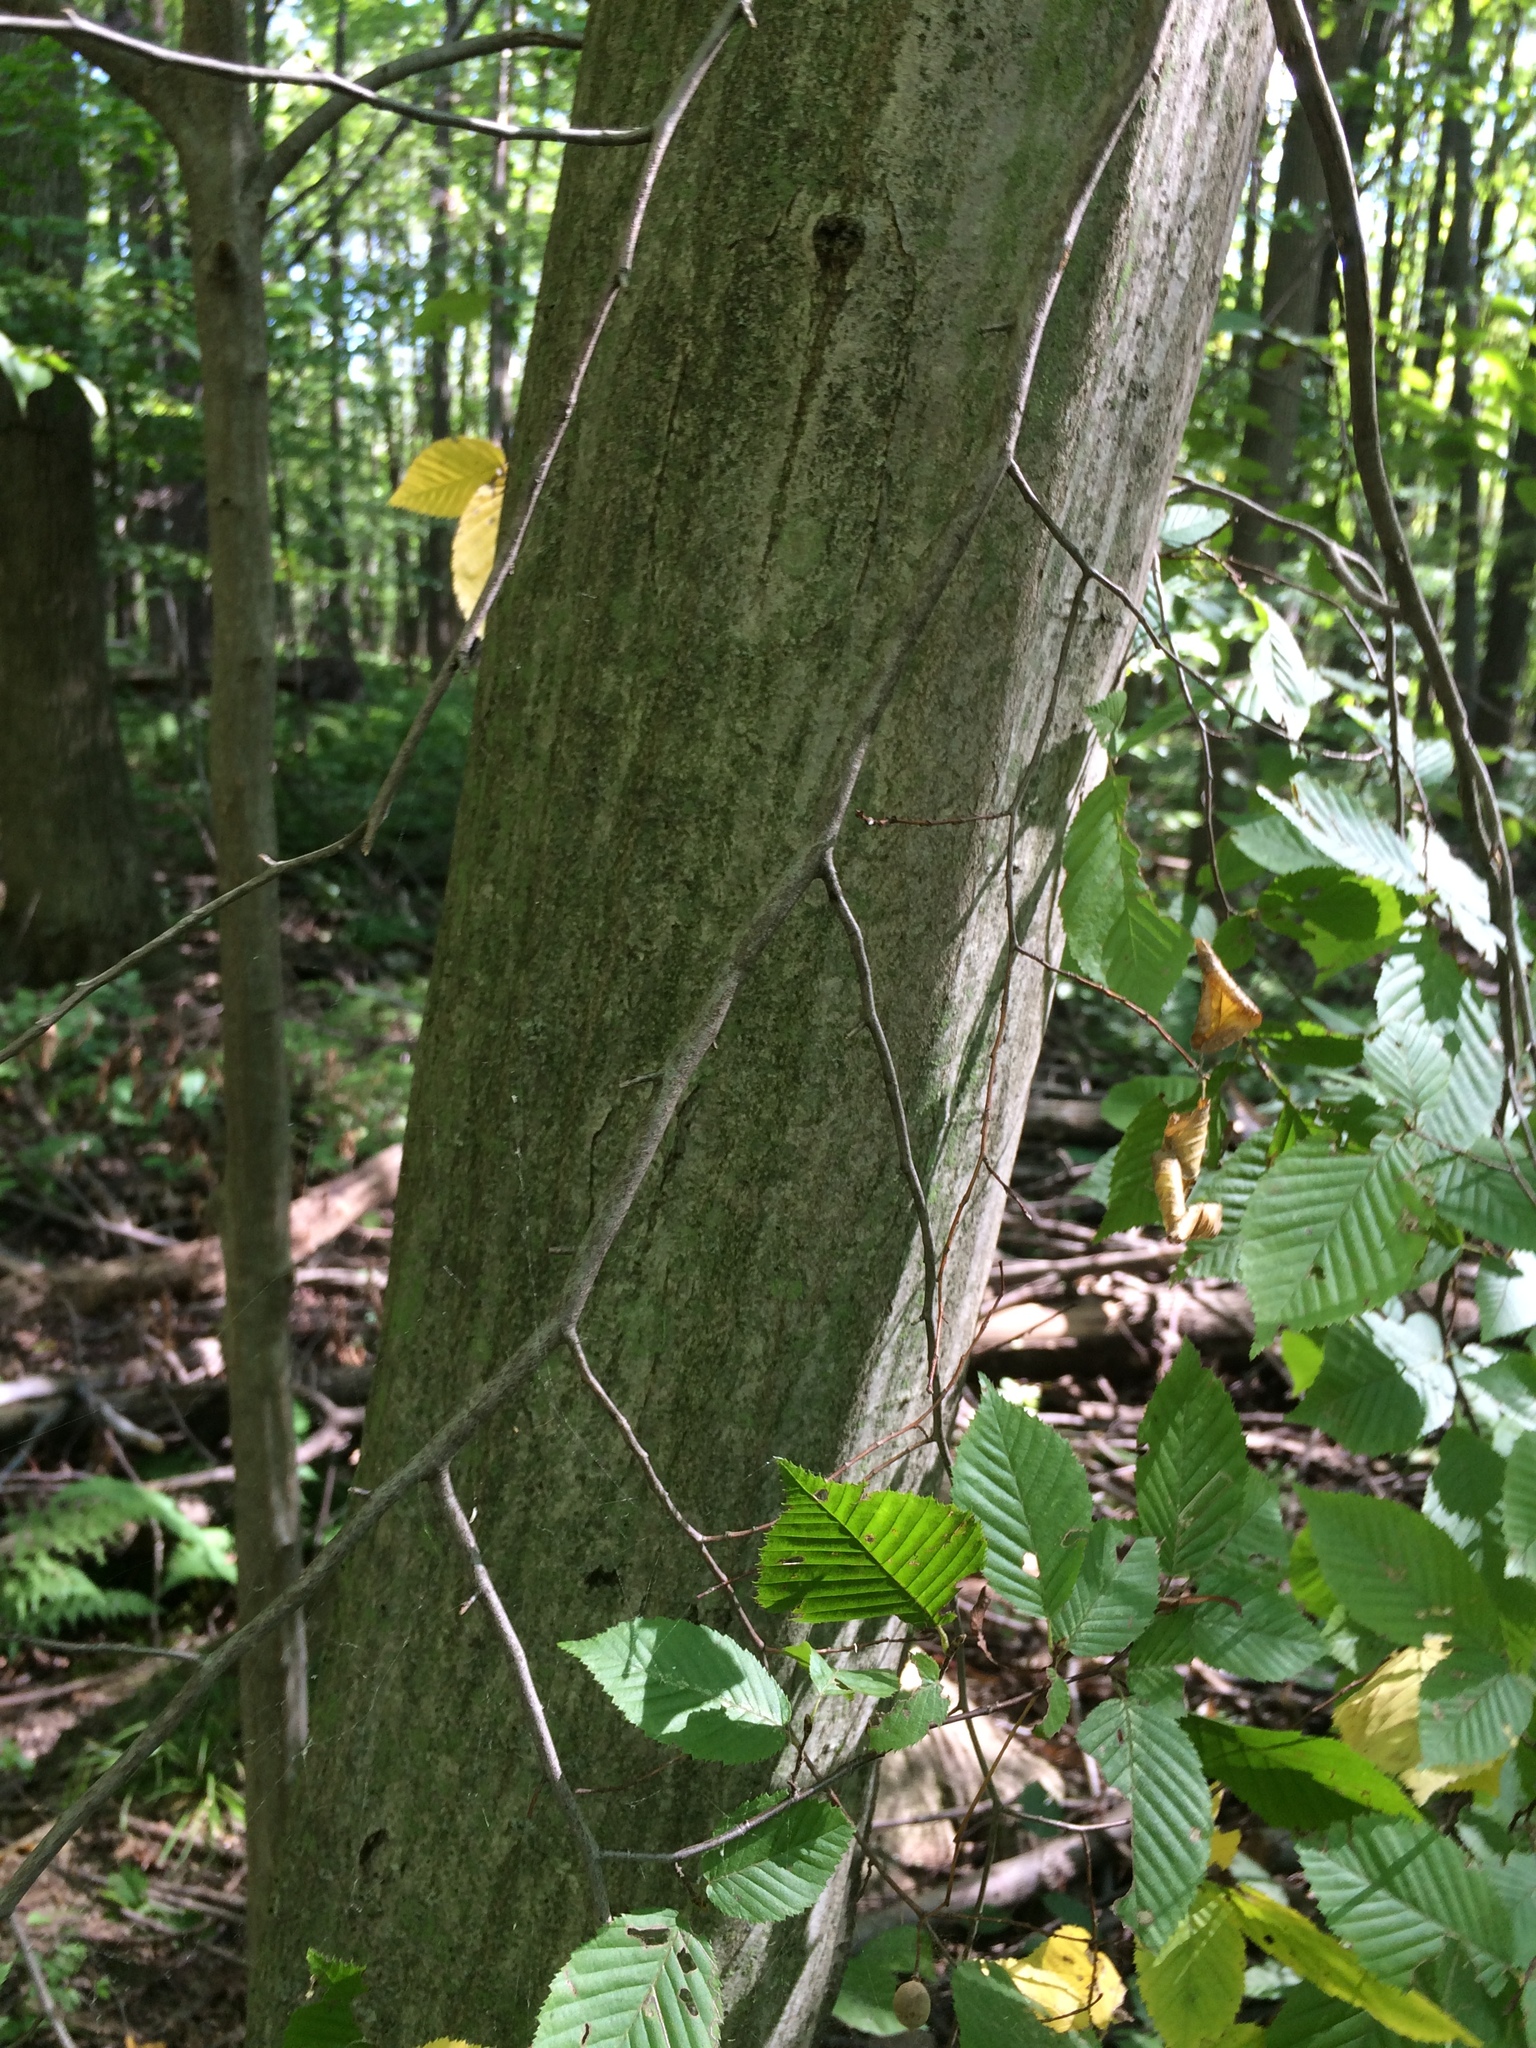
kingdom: Plantae
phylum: Tracheophyta
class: Magnoliopsida
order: Fagales
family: Betulaceae
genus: Carpinus
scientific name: Carpinus caroliniana
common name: American hornbeam
